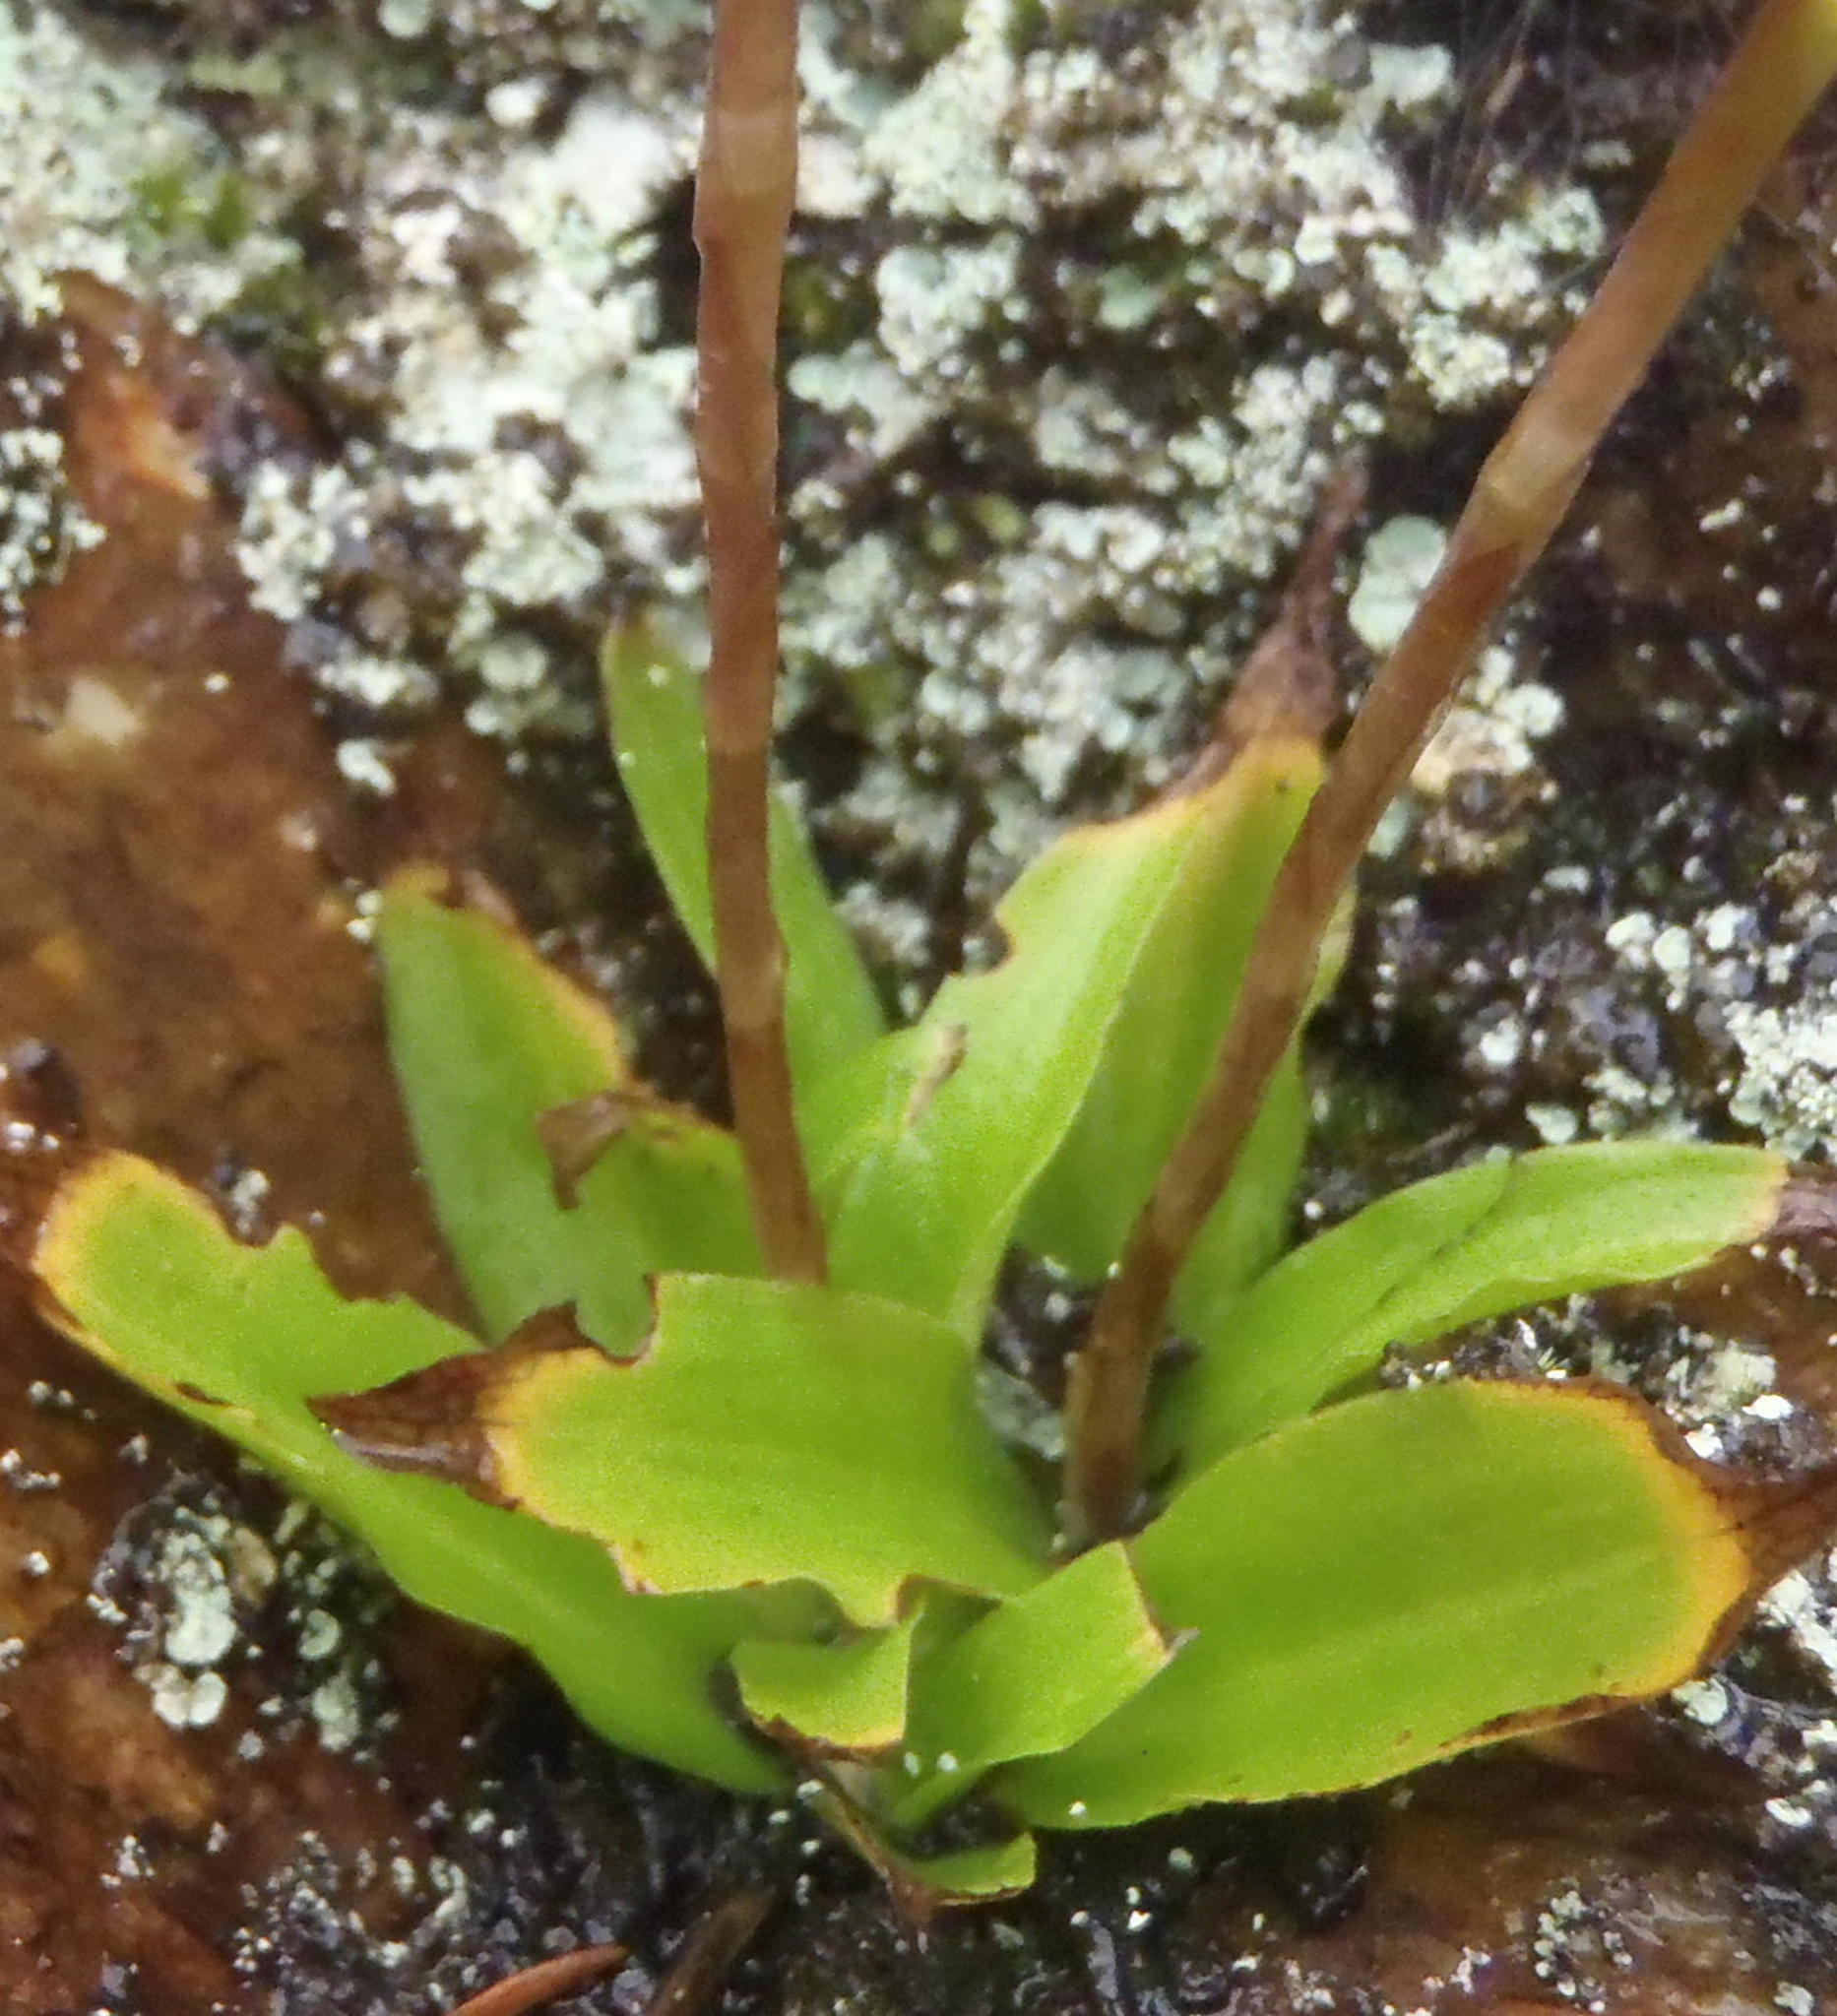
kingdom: Plantae
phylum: Tracheophyta
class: Liliopsida
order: Asparagales
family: Orchidaceae
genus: Disa
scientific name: Disa sagittalis
